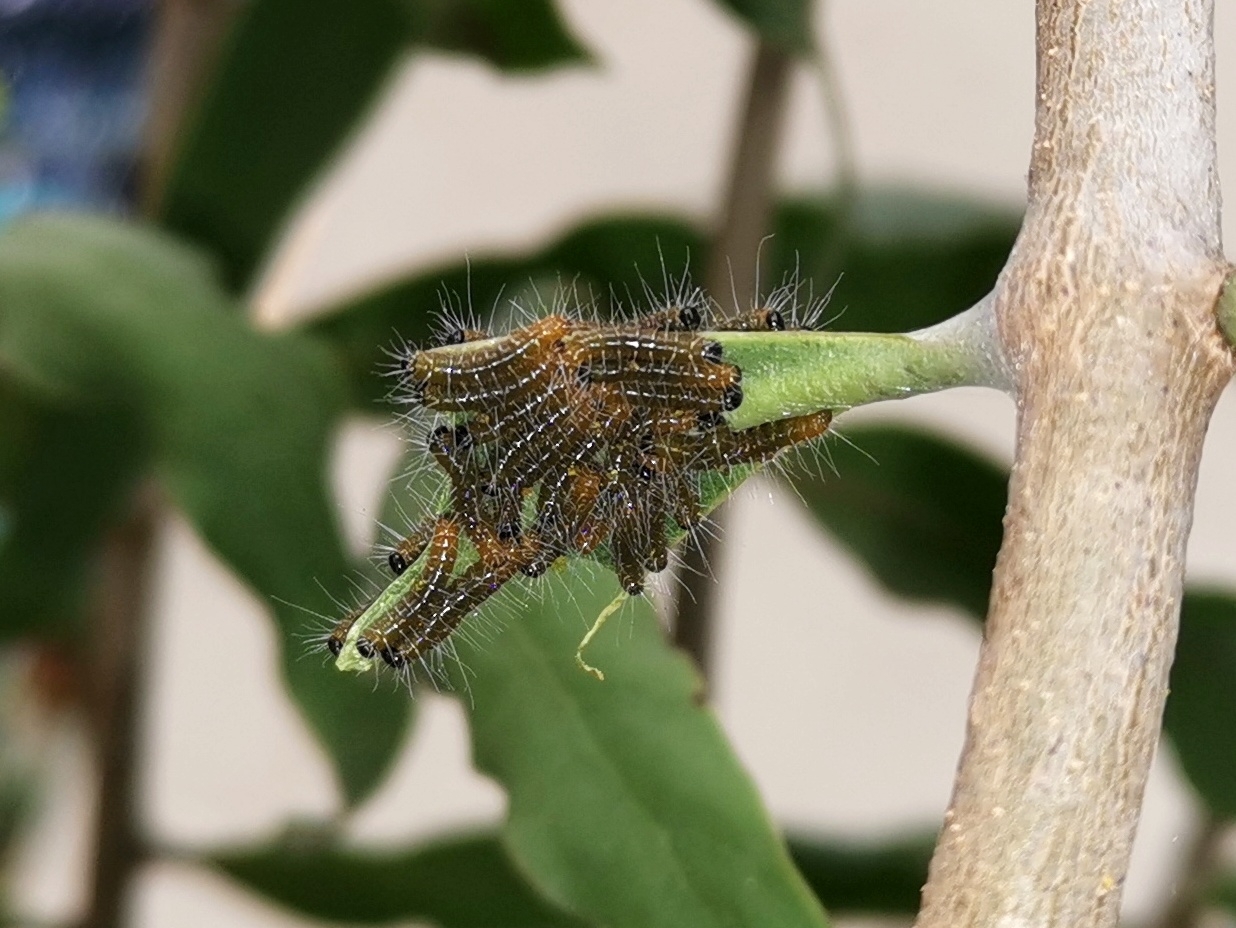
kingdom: Animalia
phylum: Arthropoda
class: Insecta
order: Lepidoptera
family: Pieridae
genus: Delias
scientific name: Delias eucharis
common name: Common jezebel
